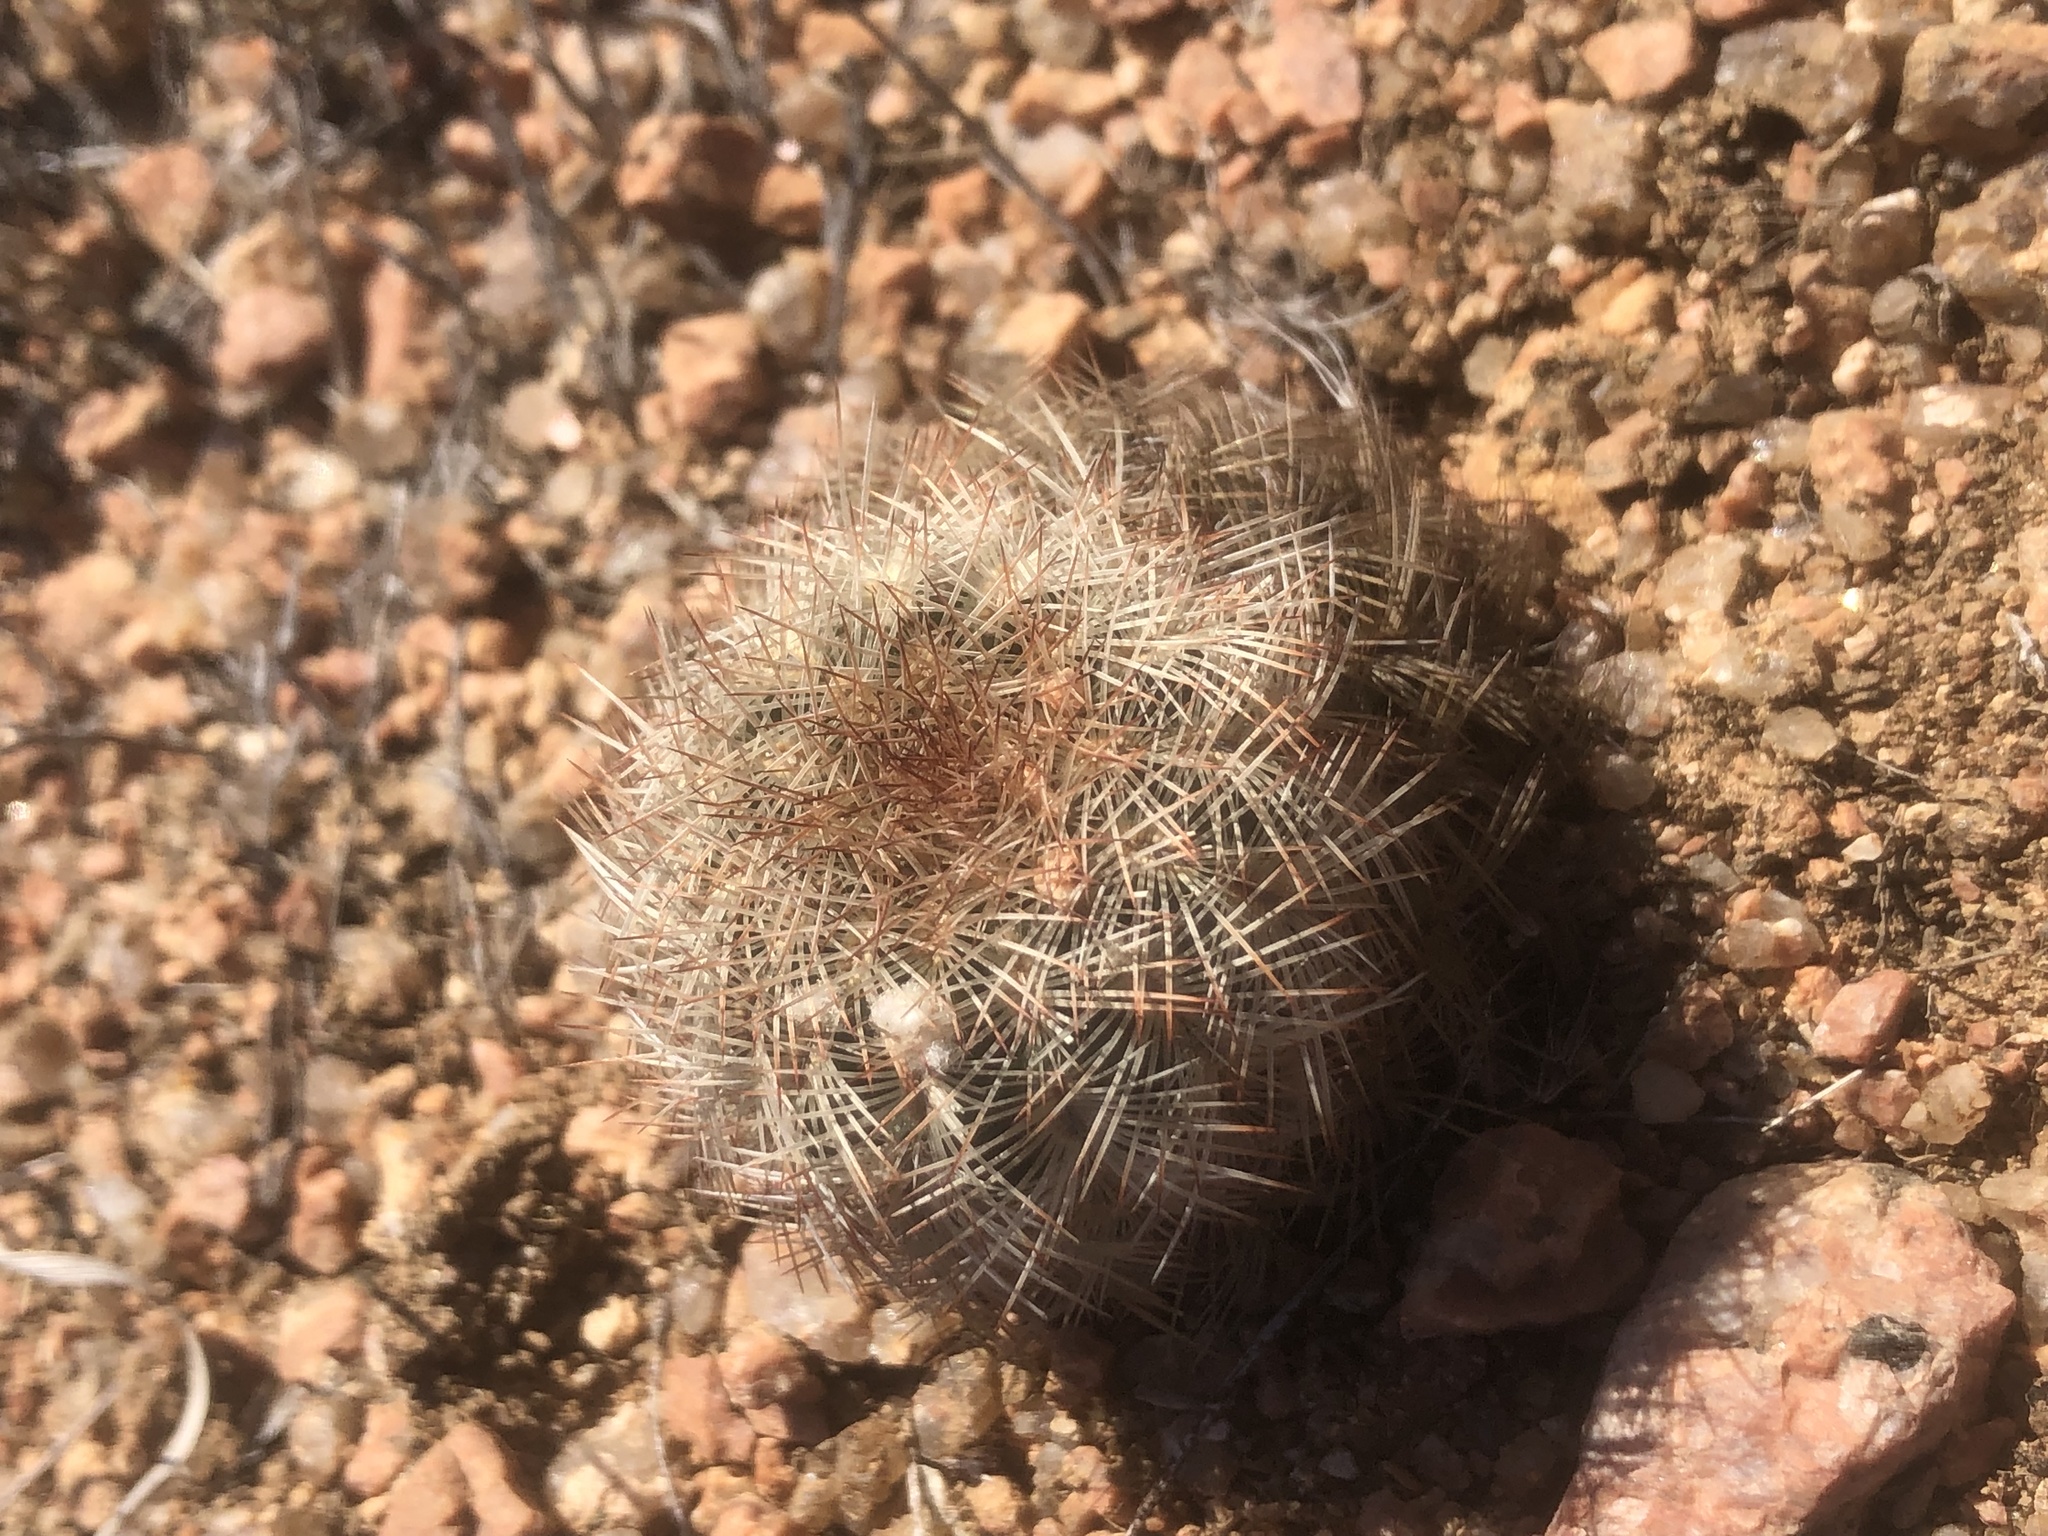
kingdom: Plantae
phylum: Tracheophyta
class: Magnoliopsida
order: Caryophyllales
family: Cactaceae
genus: Echinocereus
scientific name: Echinocereus reichenbachii
